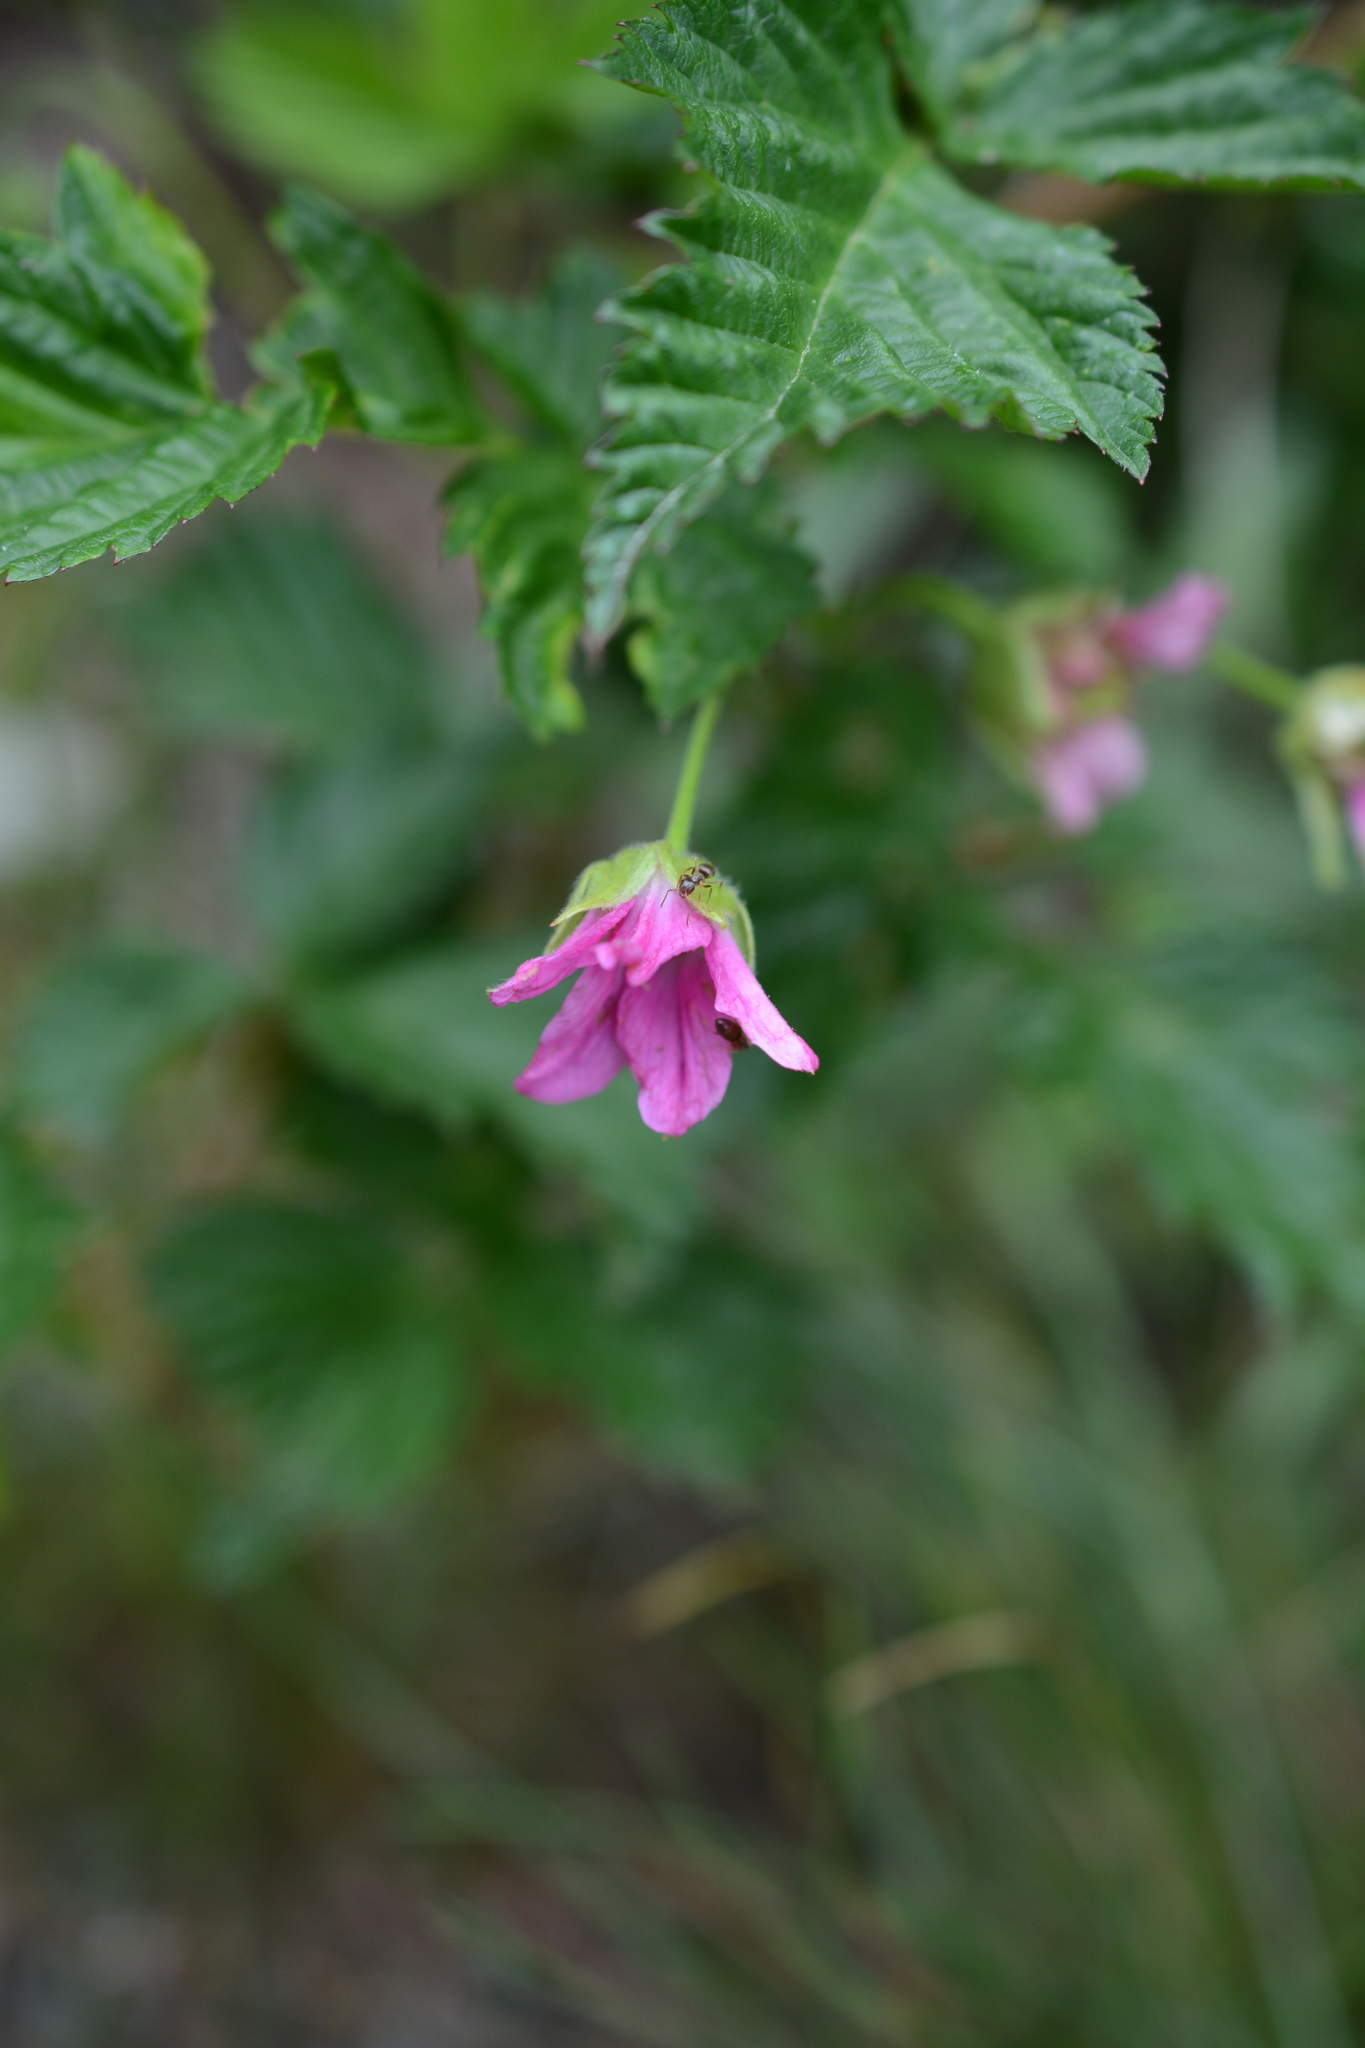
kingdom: Plantae
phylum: Tracheophyta
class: Magnoliopsida
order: Rosales
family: Rosaceae
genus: Rubus
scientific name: Rubus spectabilis
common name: Salmonberry
